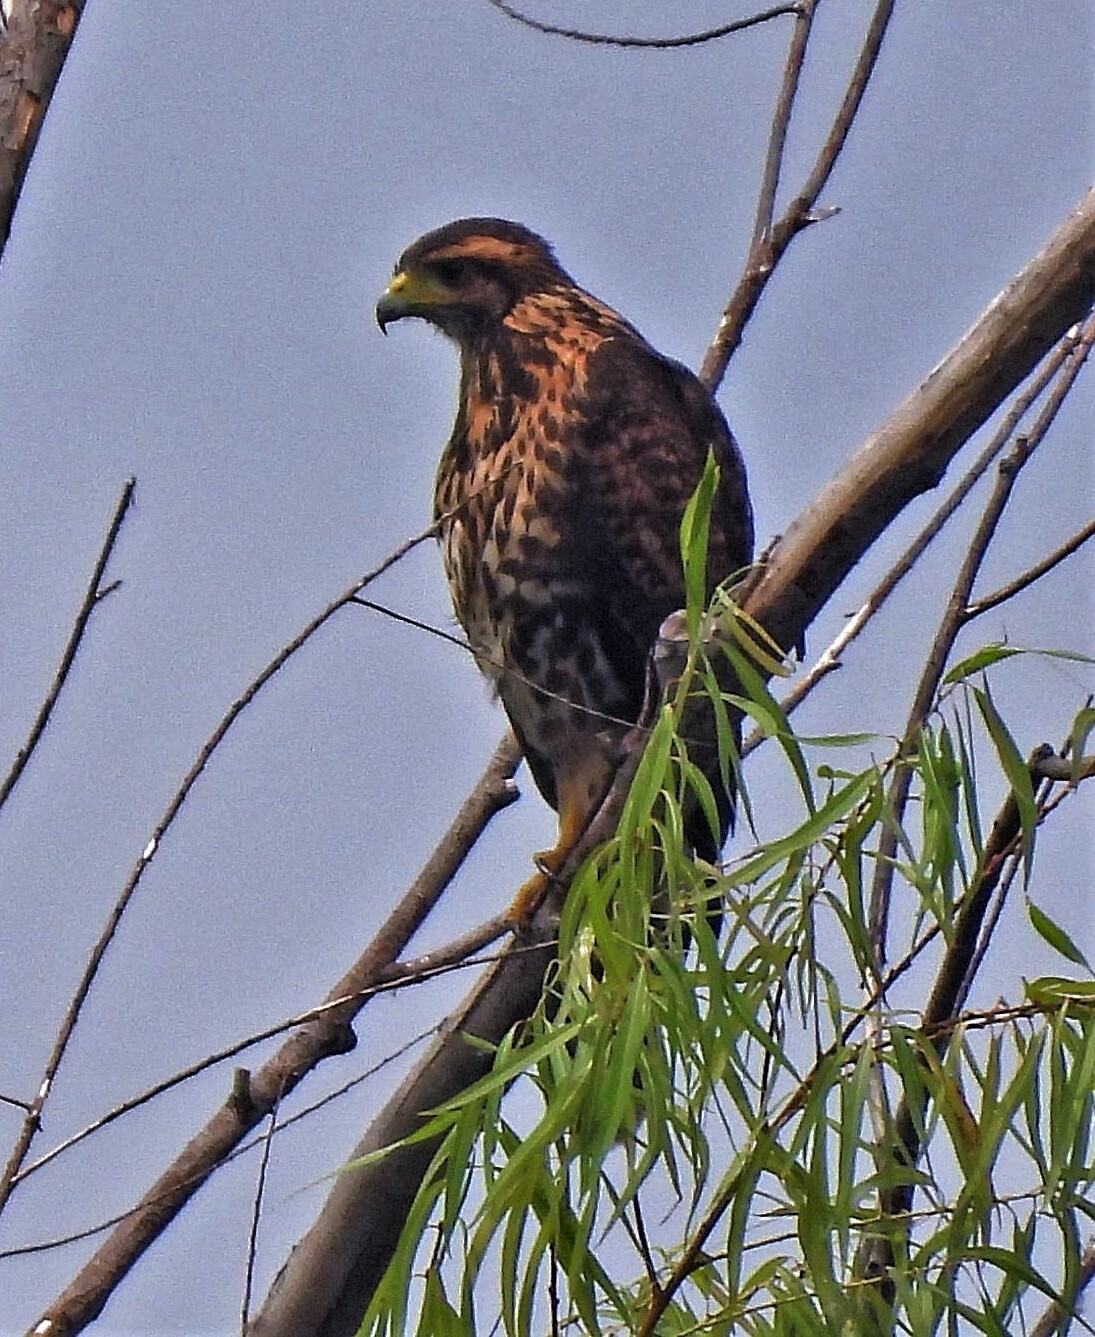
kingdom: Animalia
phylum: Chordata
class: Aves
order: Accipitriformes
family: Accipitridae
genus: Parabuteo
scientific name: Parabuteo unicinctus
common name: Harris's hawk
